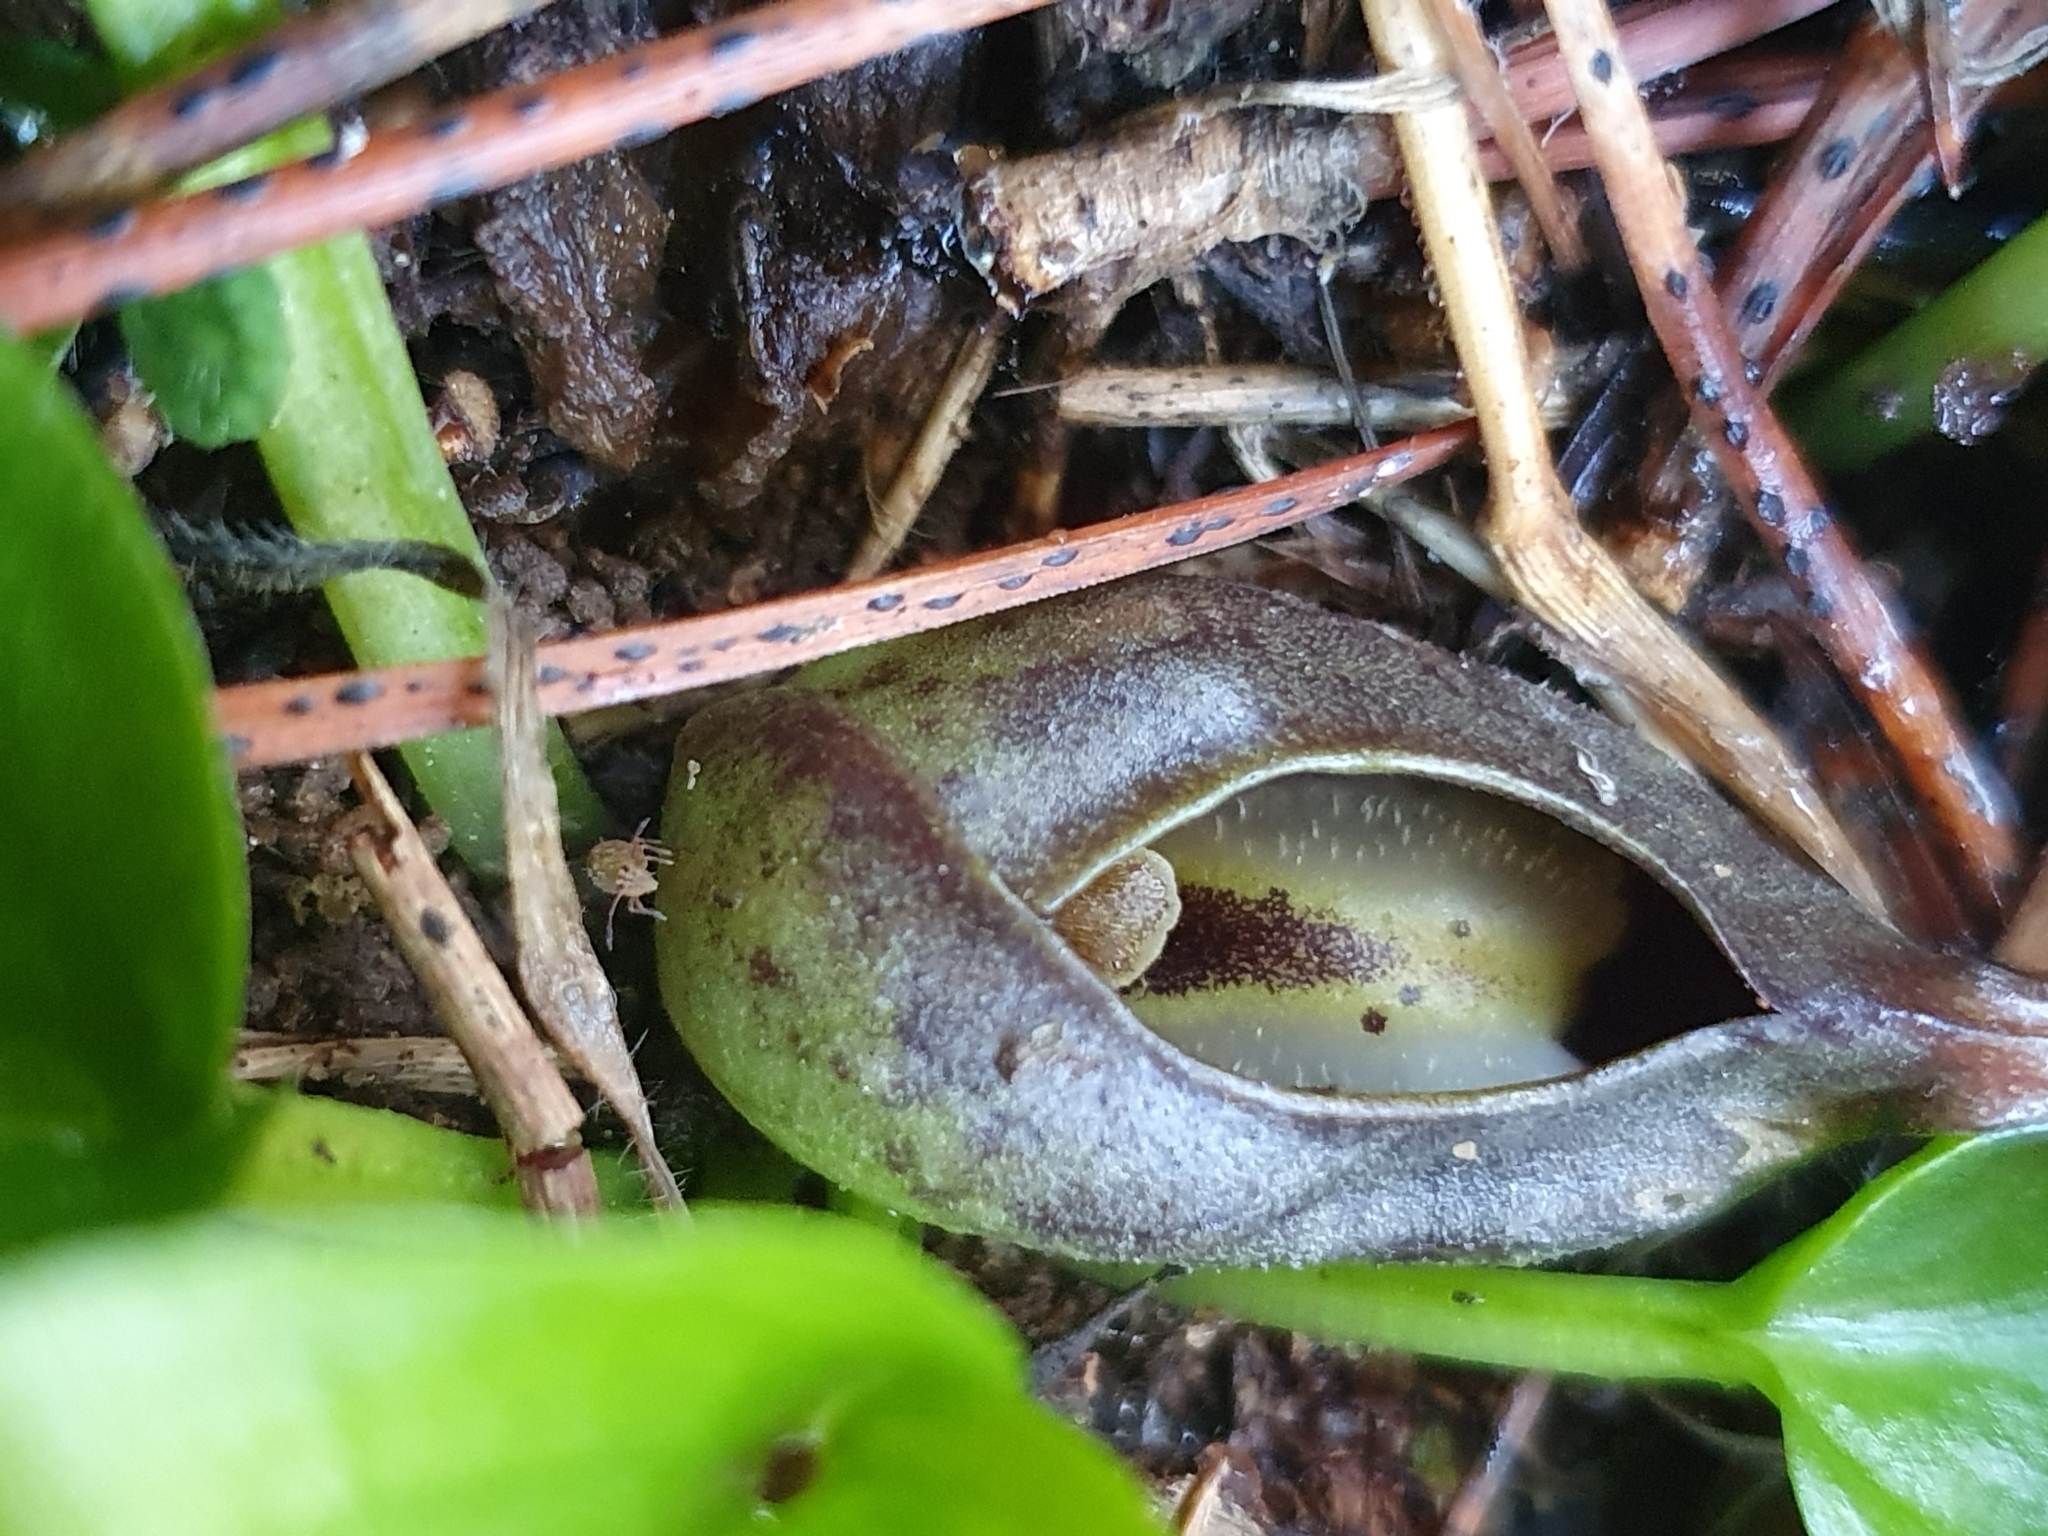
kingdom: Plantae
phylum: Tracheophyta
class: Liliopsida
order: Alismatales
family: Araceae
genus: Ambrosina
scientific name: Ambrosina bassii
